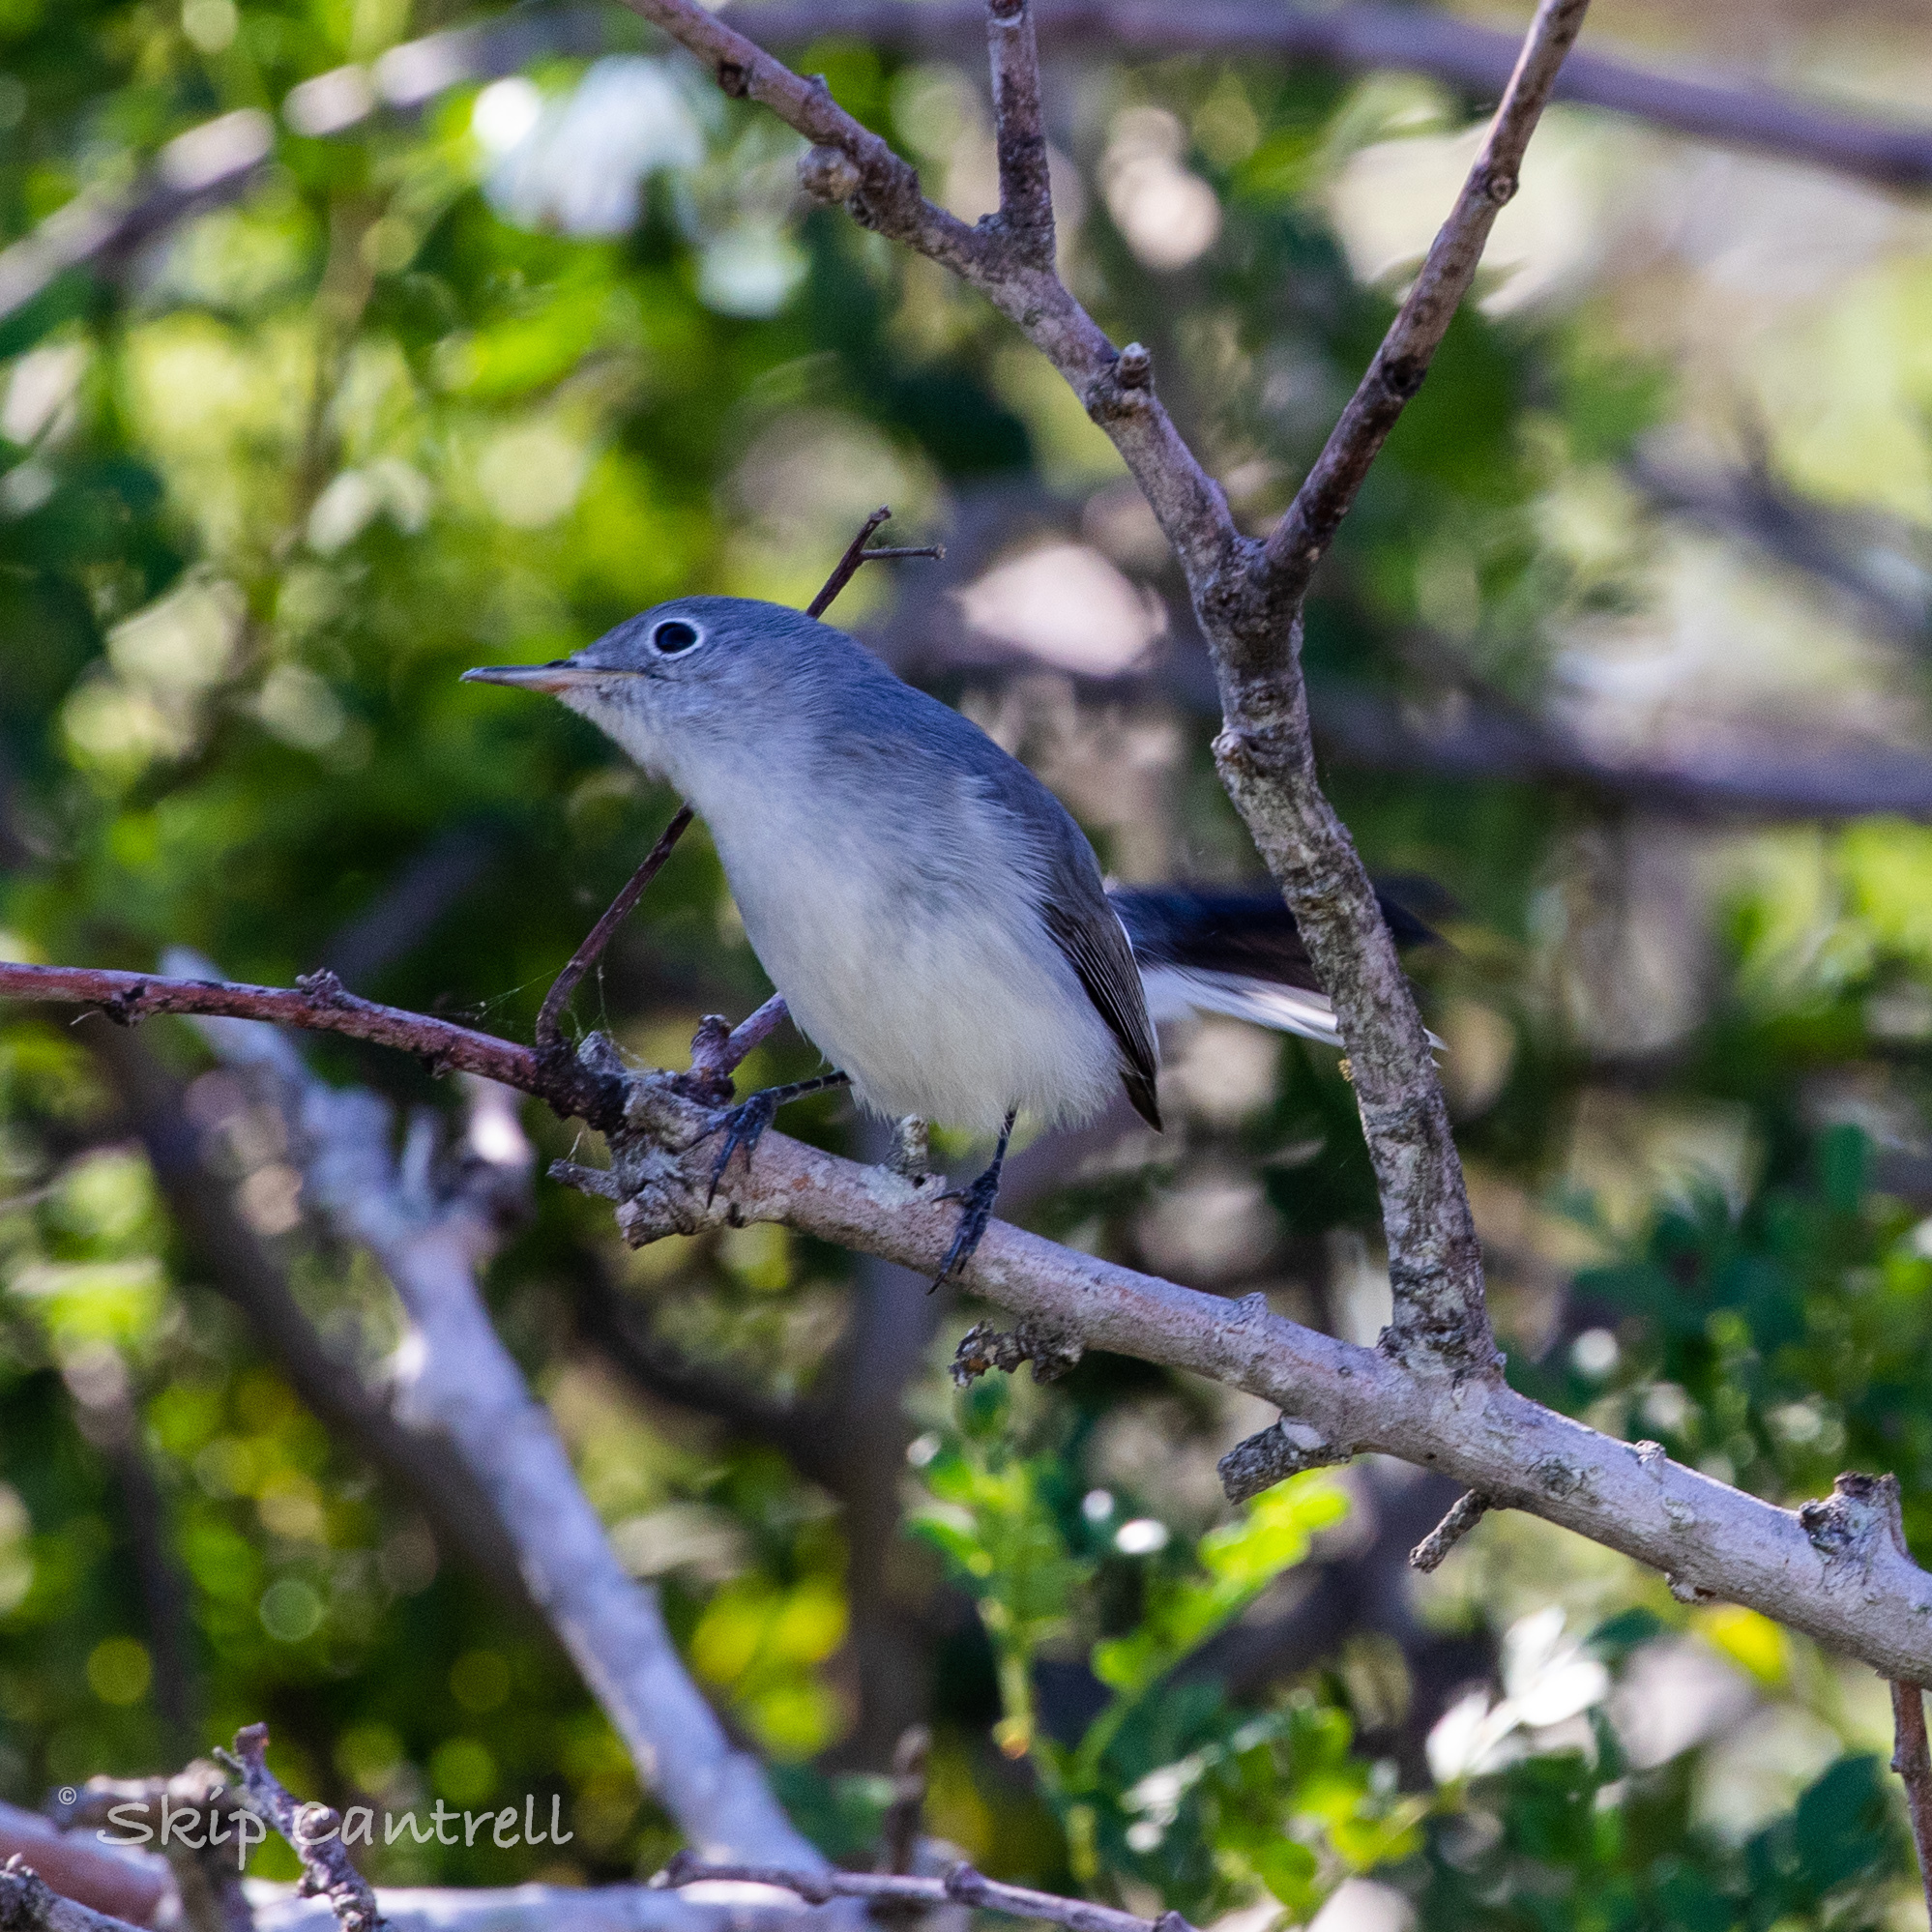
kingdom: Animalia
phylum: Chordata
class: Aves
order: Passeriformes
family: Polioptilidae
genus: Polioptila
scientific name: Polioptila caerulea
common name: Blue-gray gnatcatcher
